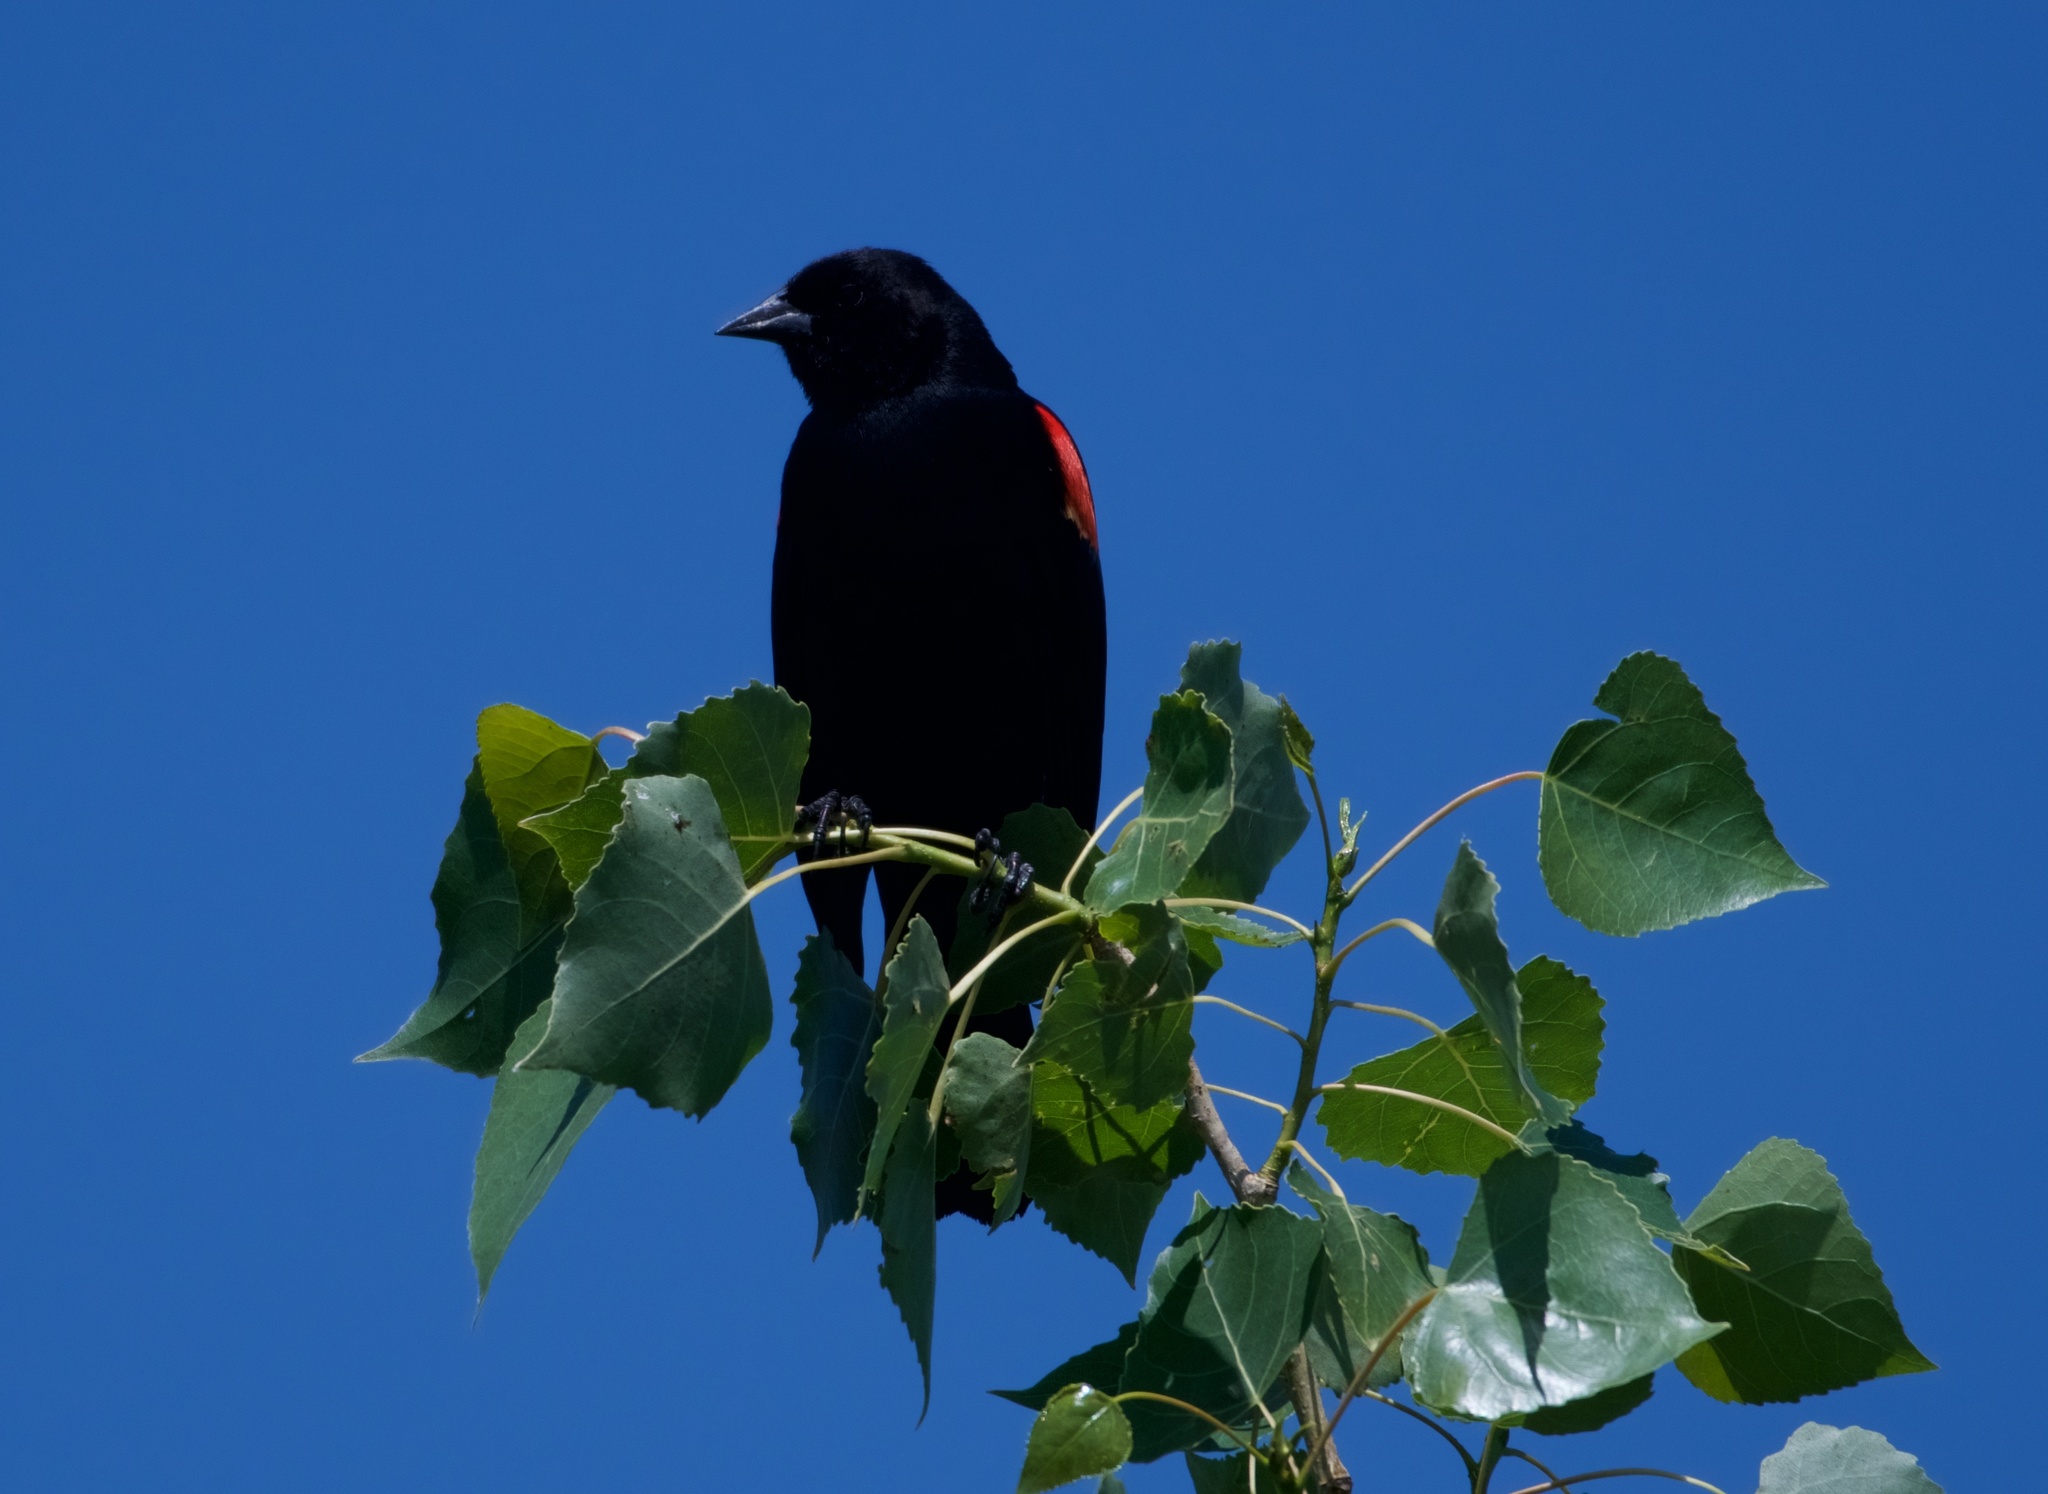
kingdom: Animalia
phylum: Chordata
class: Aves
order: Passeriformes
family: Icteridae
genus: Agelaius
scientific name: Agelaius phoeniceus
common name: Red-winged blackbird
